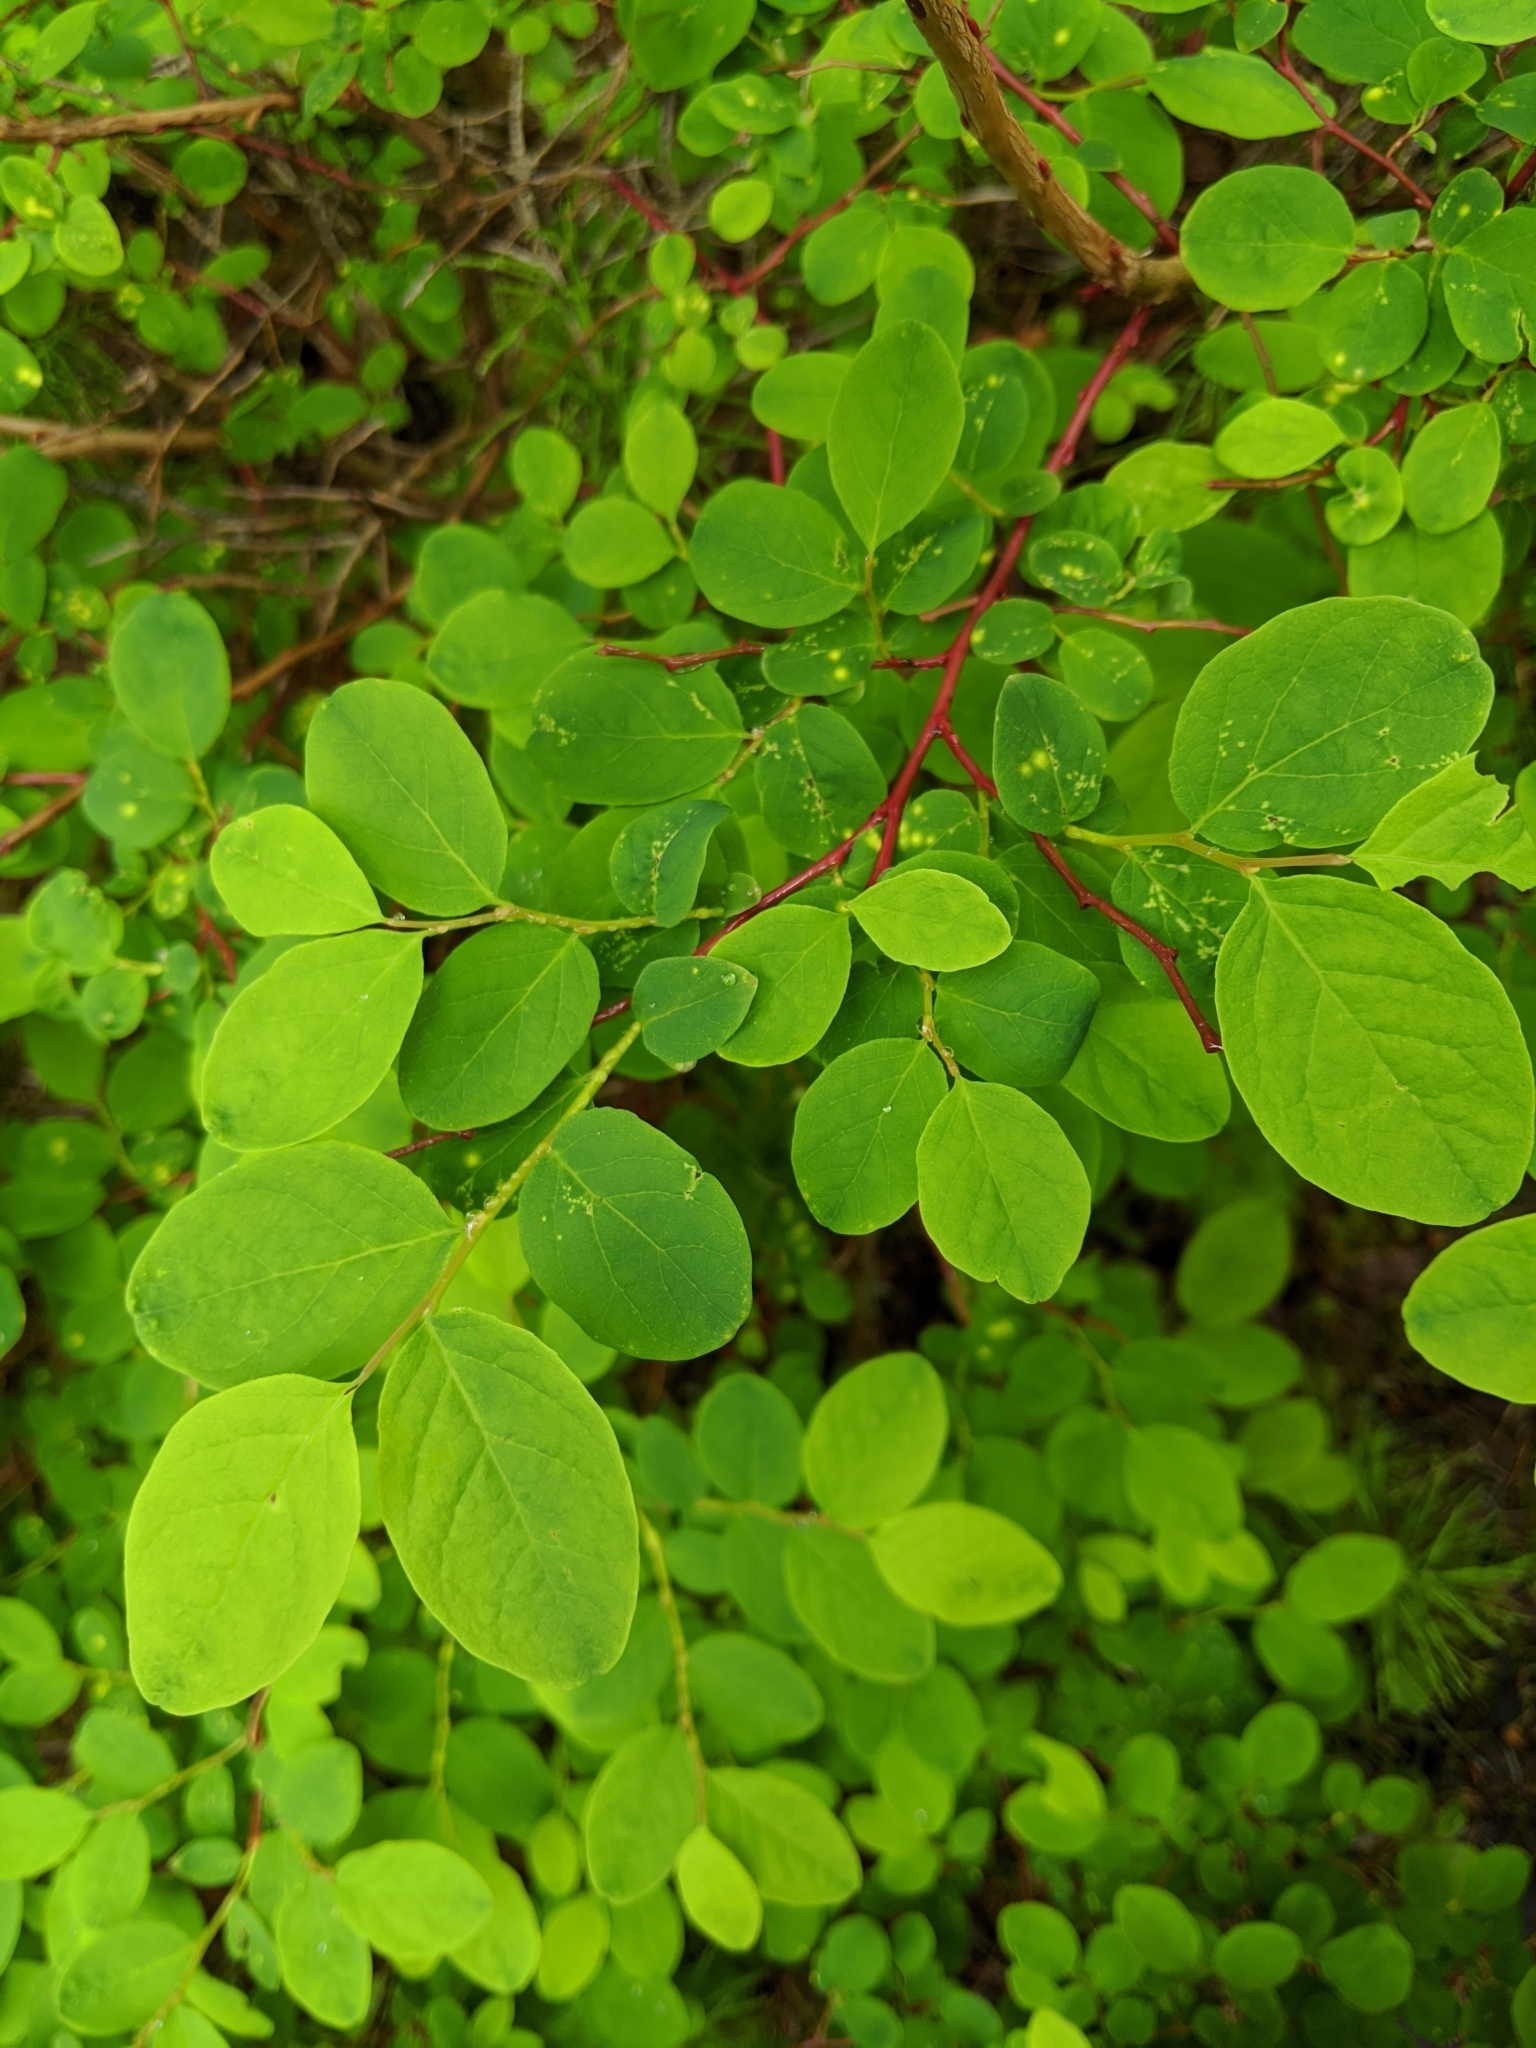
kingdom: Plantae
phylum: Tracheophyta
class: Magnoliopsida
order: Ericales
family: Ericaceae
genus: Vaccinium
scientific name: Vaccinium ovalifolium
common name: Early blueberry
